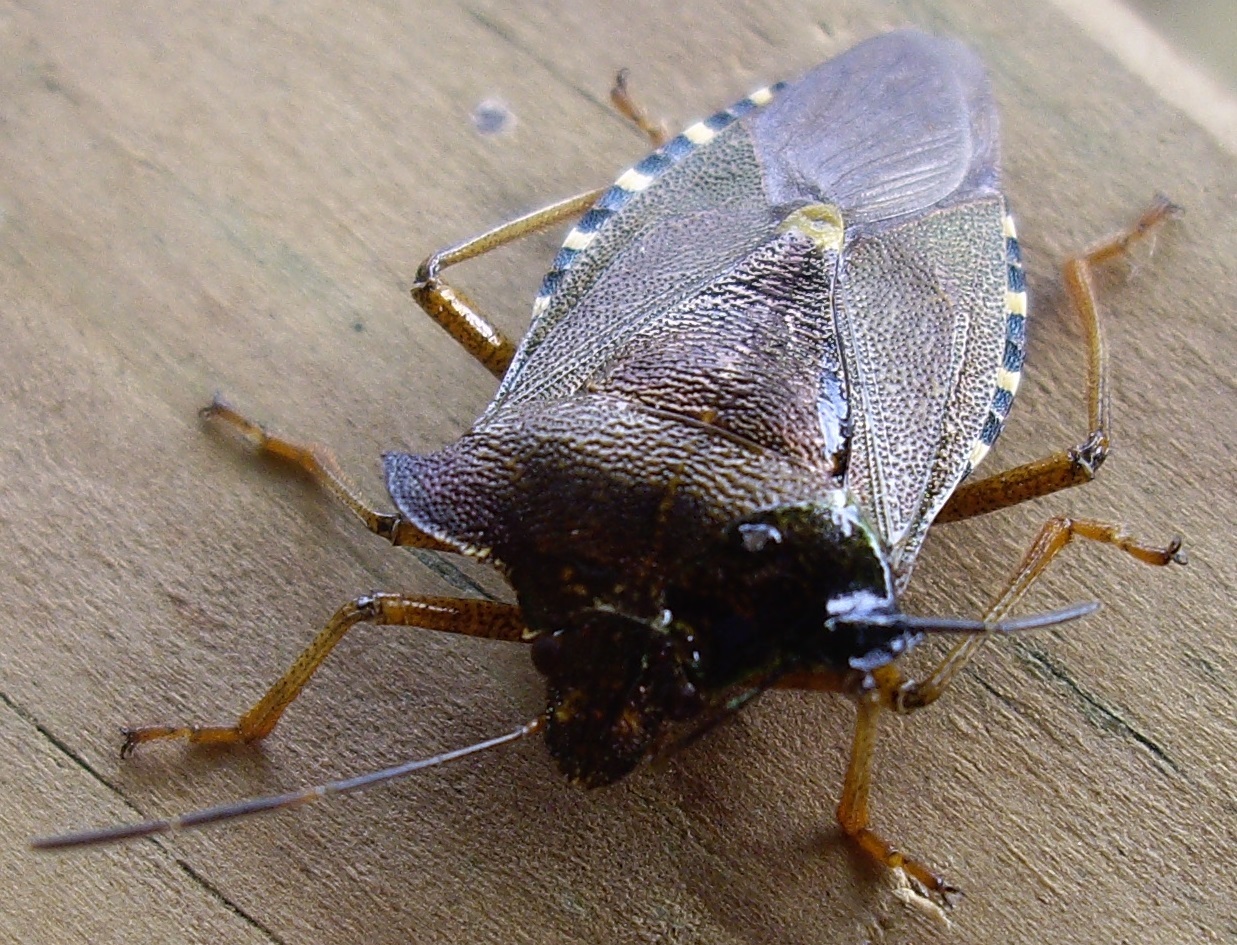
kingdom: Animalia
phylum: Arthropoda
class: Insecta
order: Hemiptera
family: Pentatomidae
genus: Pentatoma
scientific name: Pentatoma rufipes
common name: Forest bug
